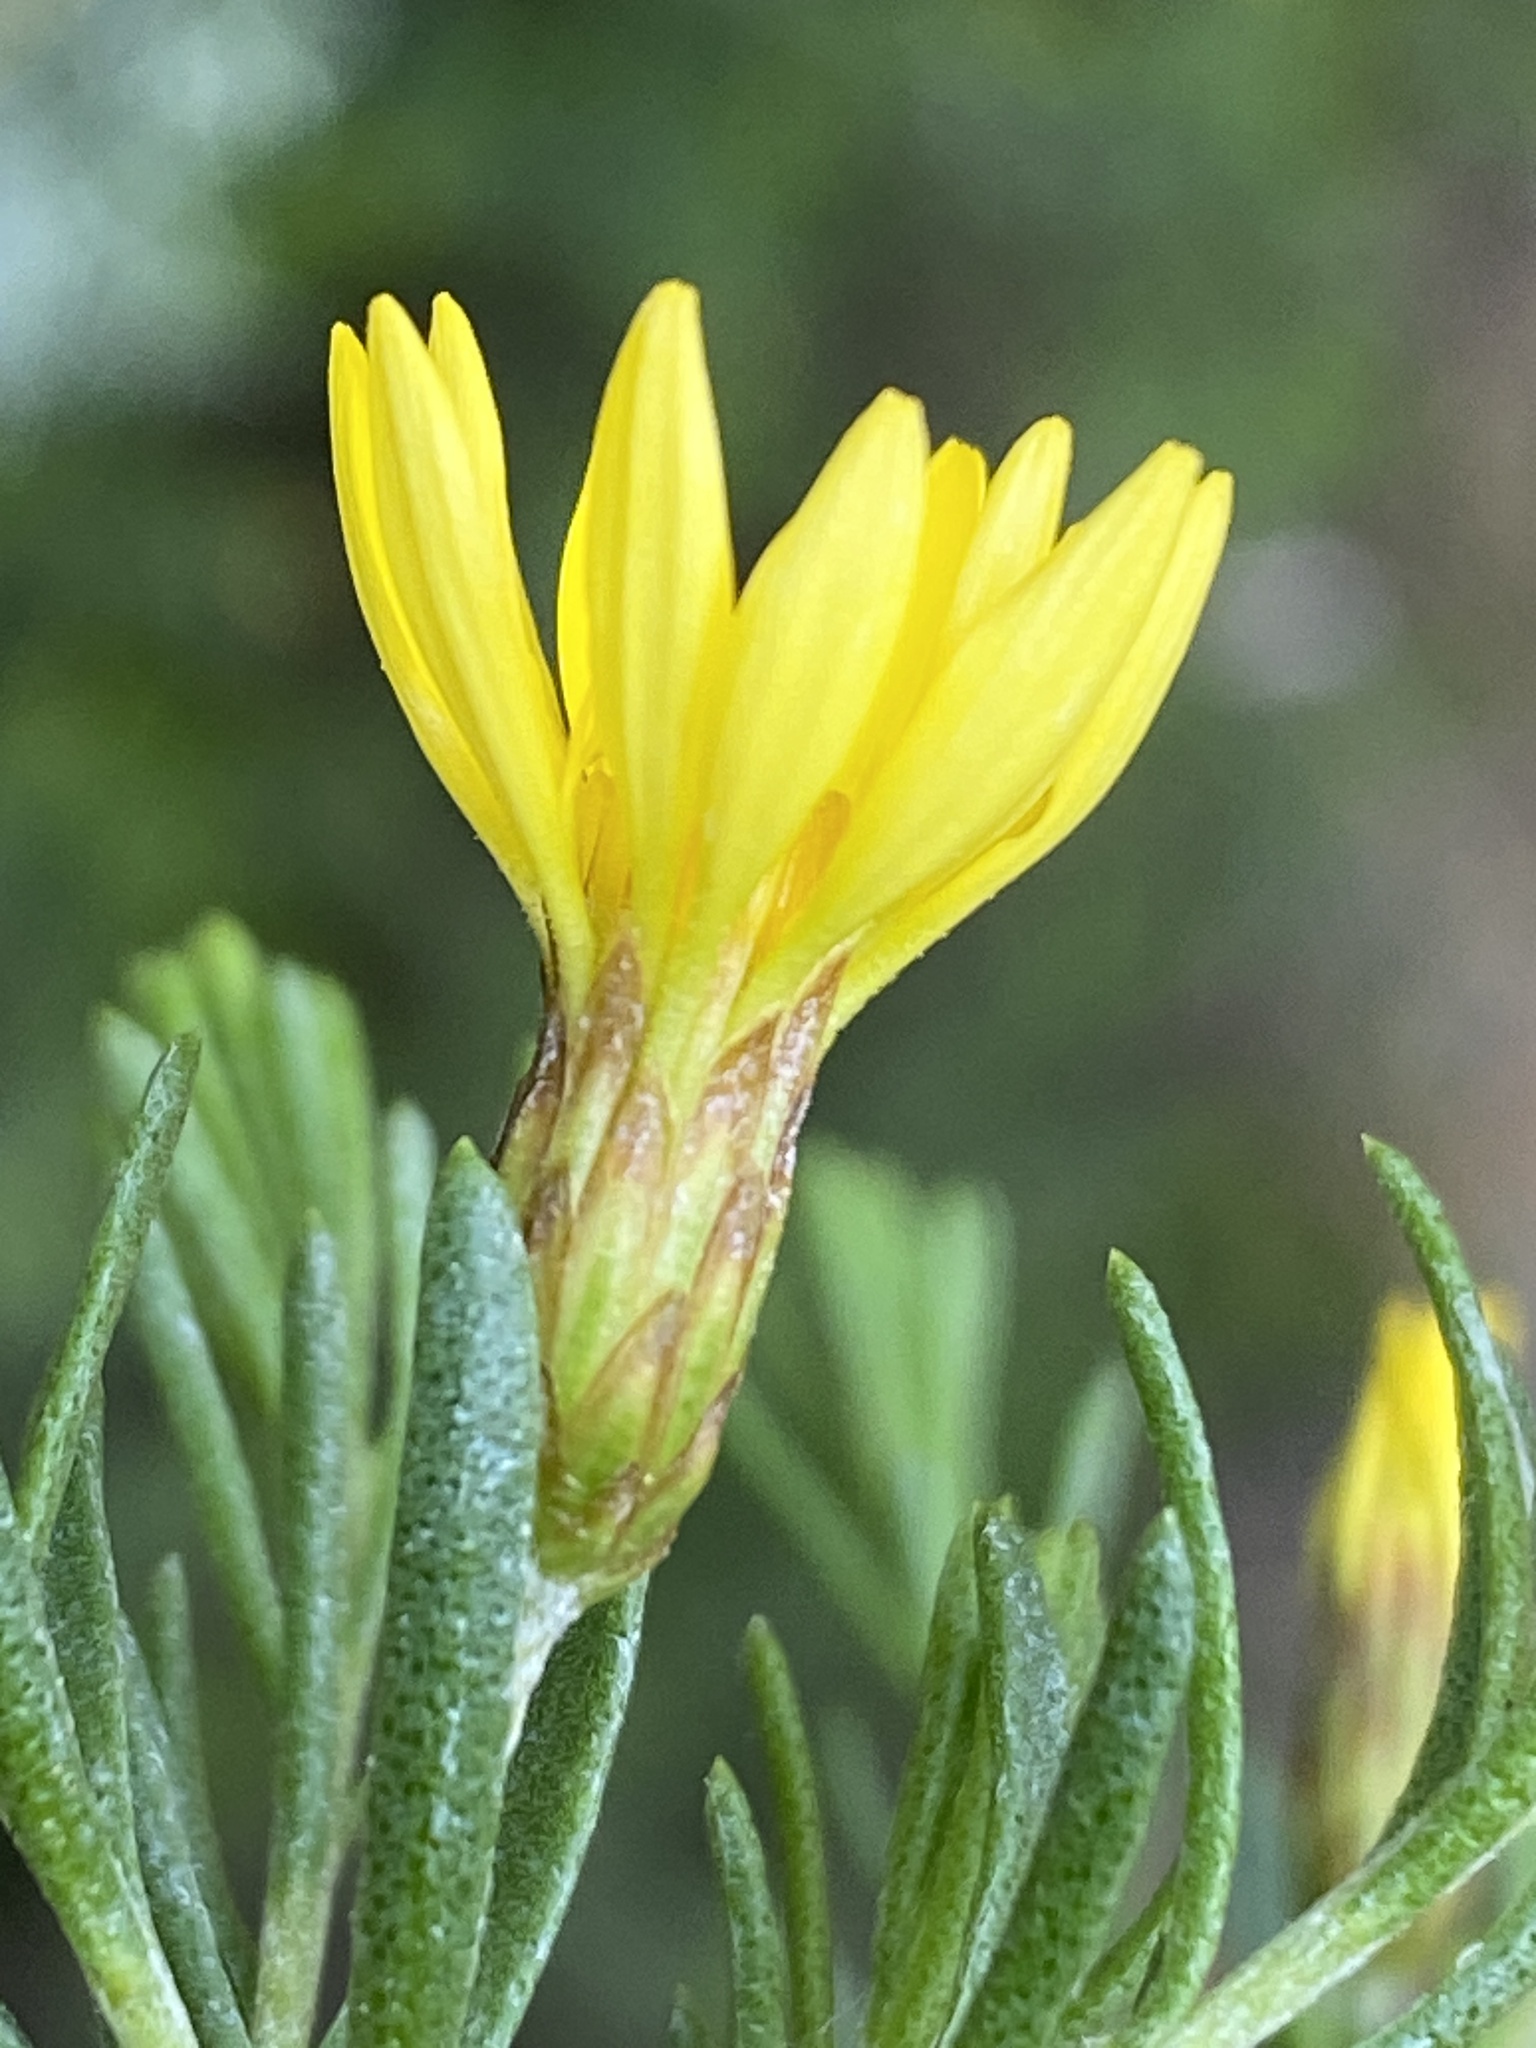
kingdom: Plantae
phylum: Tracheophyta
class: Magnoliopsida
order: Asterales
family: Asteraceae
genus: Oedera
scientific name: Oedera sedifolia
